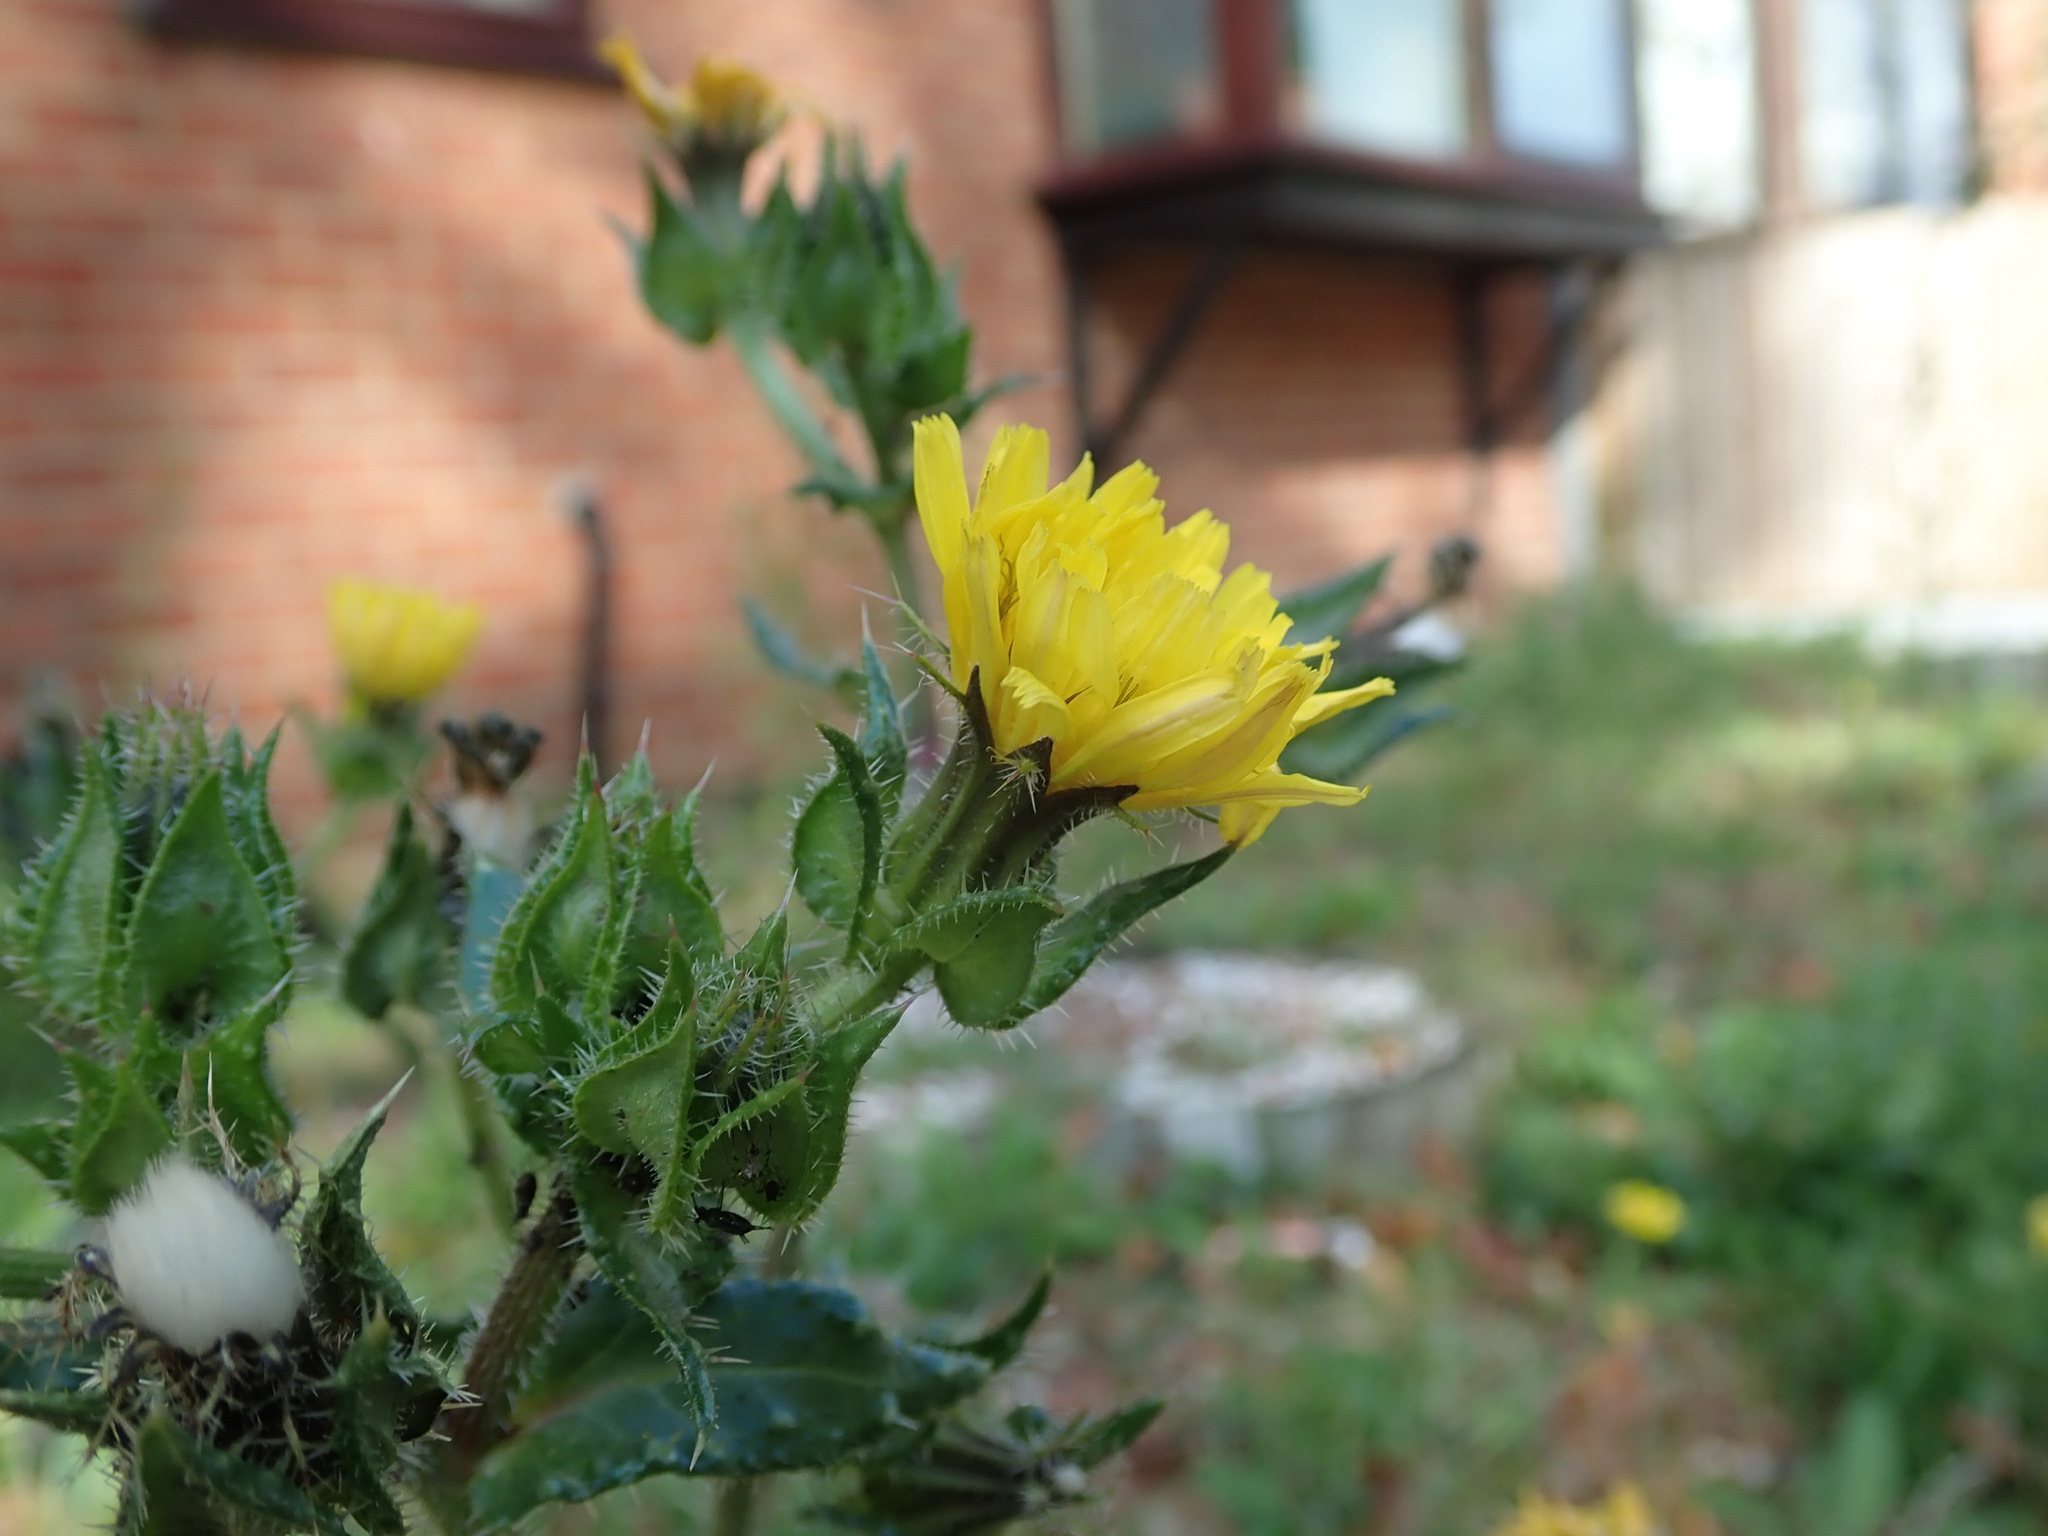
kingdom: Plantae
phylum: Tracheophyta
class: Magnoliopsida
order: Asterales
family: Asteraceae
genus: Helminthotheca
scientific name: Helminthotheca echioides
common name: Ox-tongue
